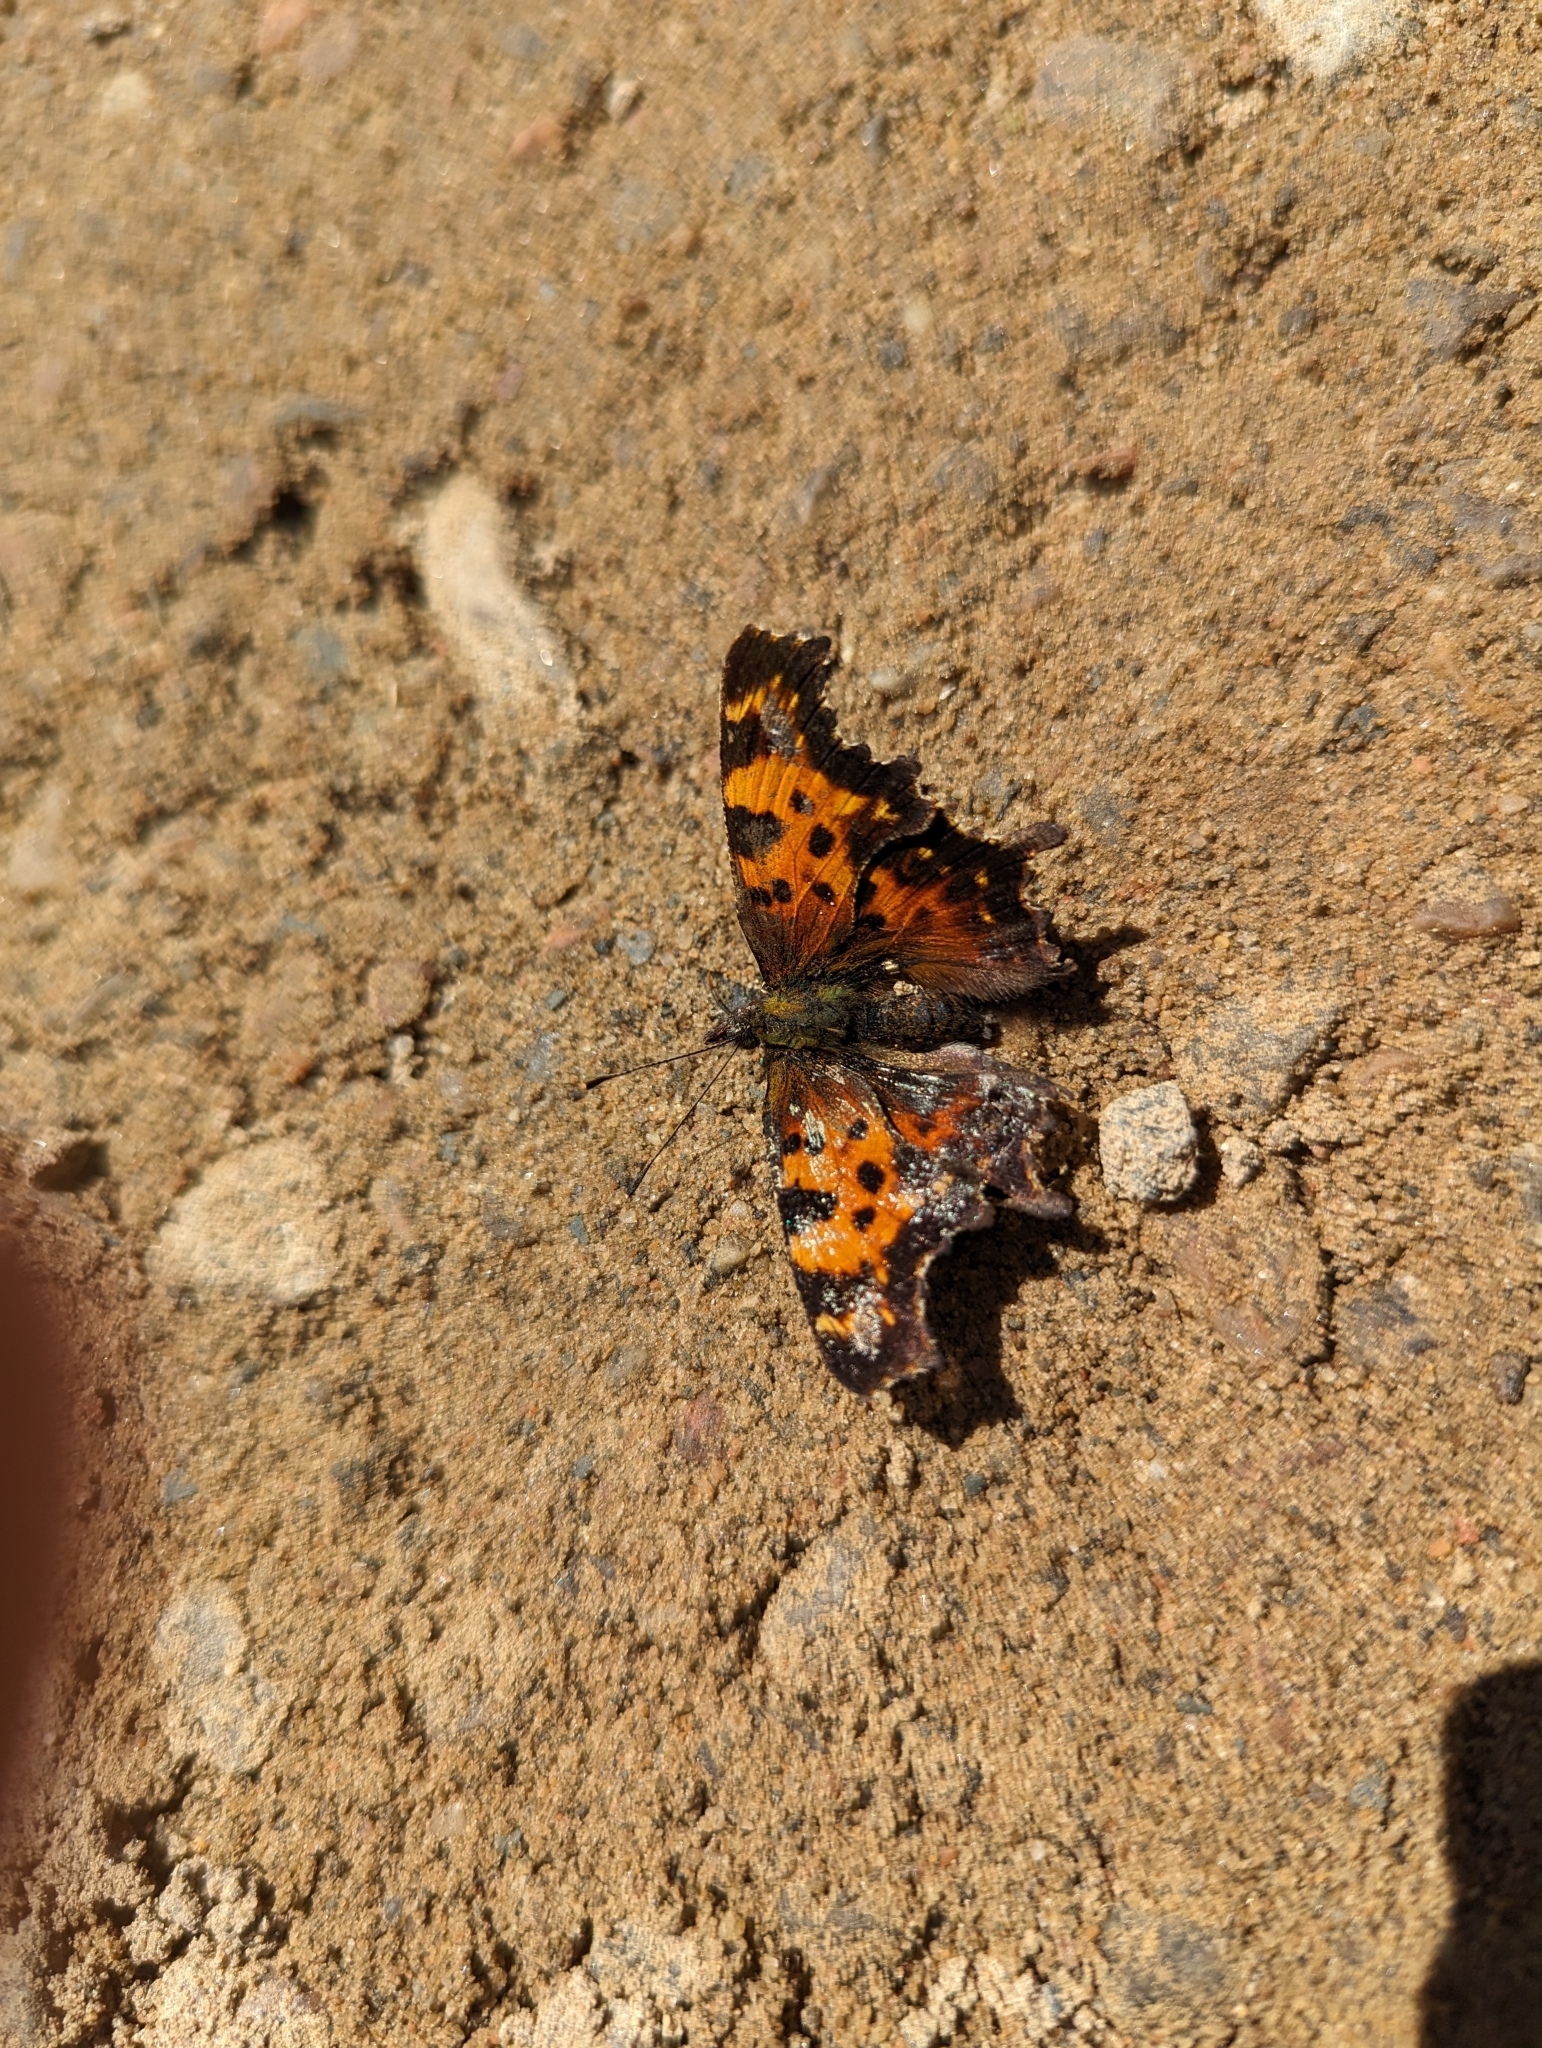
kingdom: Animalia
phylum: Arthropoda
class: Insecta
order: Lepidoptera
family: Nymphalidae
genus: Polygonia
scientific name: Polygonia faunus
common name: Green comma
